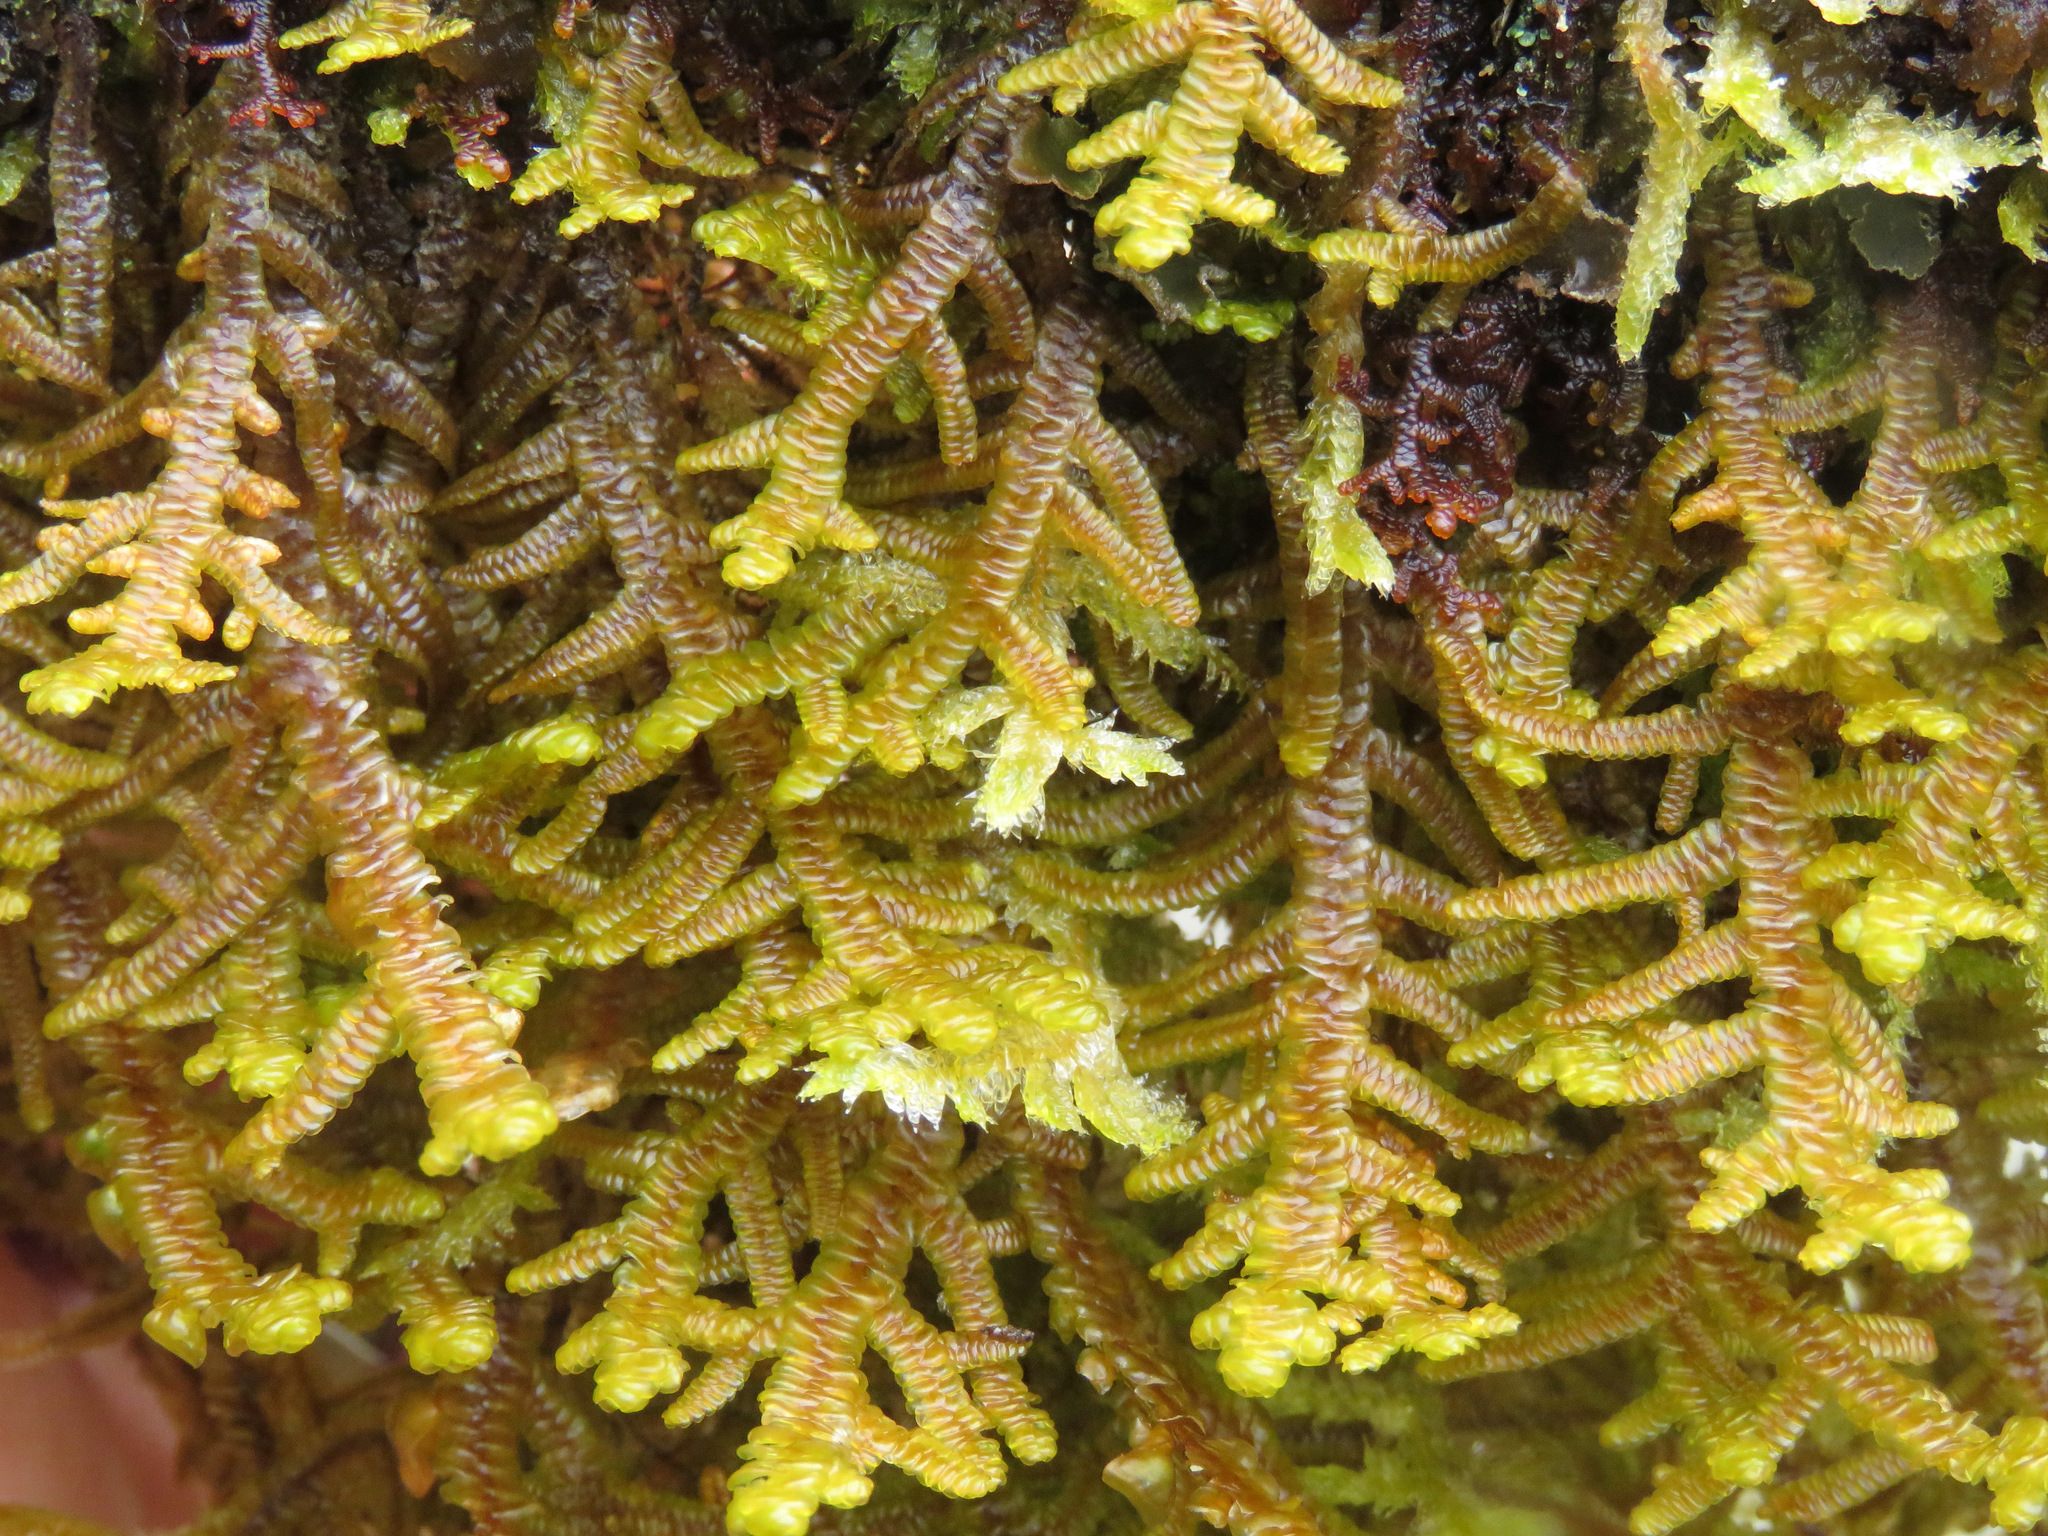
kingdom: Plantae
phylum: Marchantiophyta
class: Jungermanniopsida
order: Porellales
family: Porellaceae
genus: Porella
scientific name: Porella navicularis
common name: Tree ruffle liverwort
